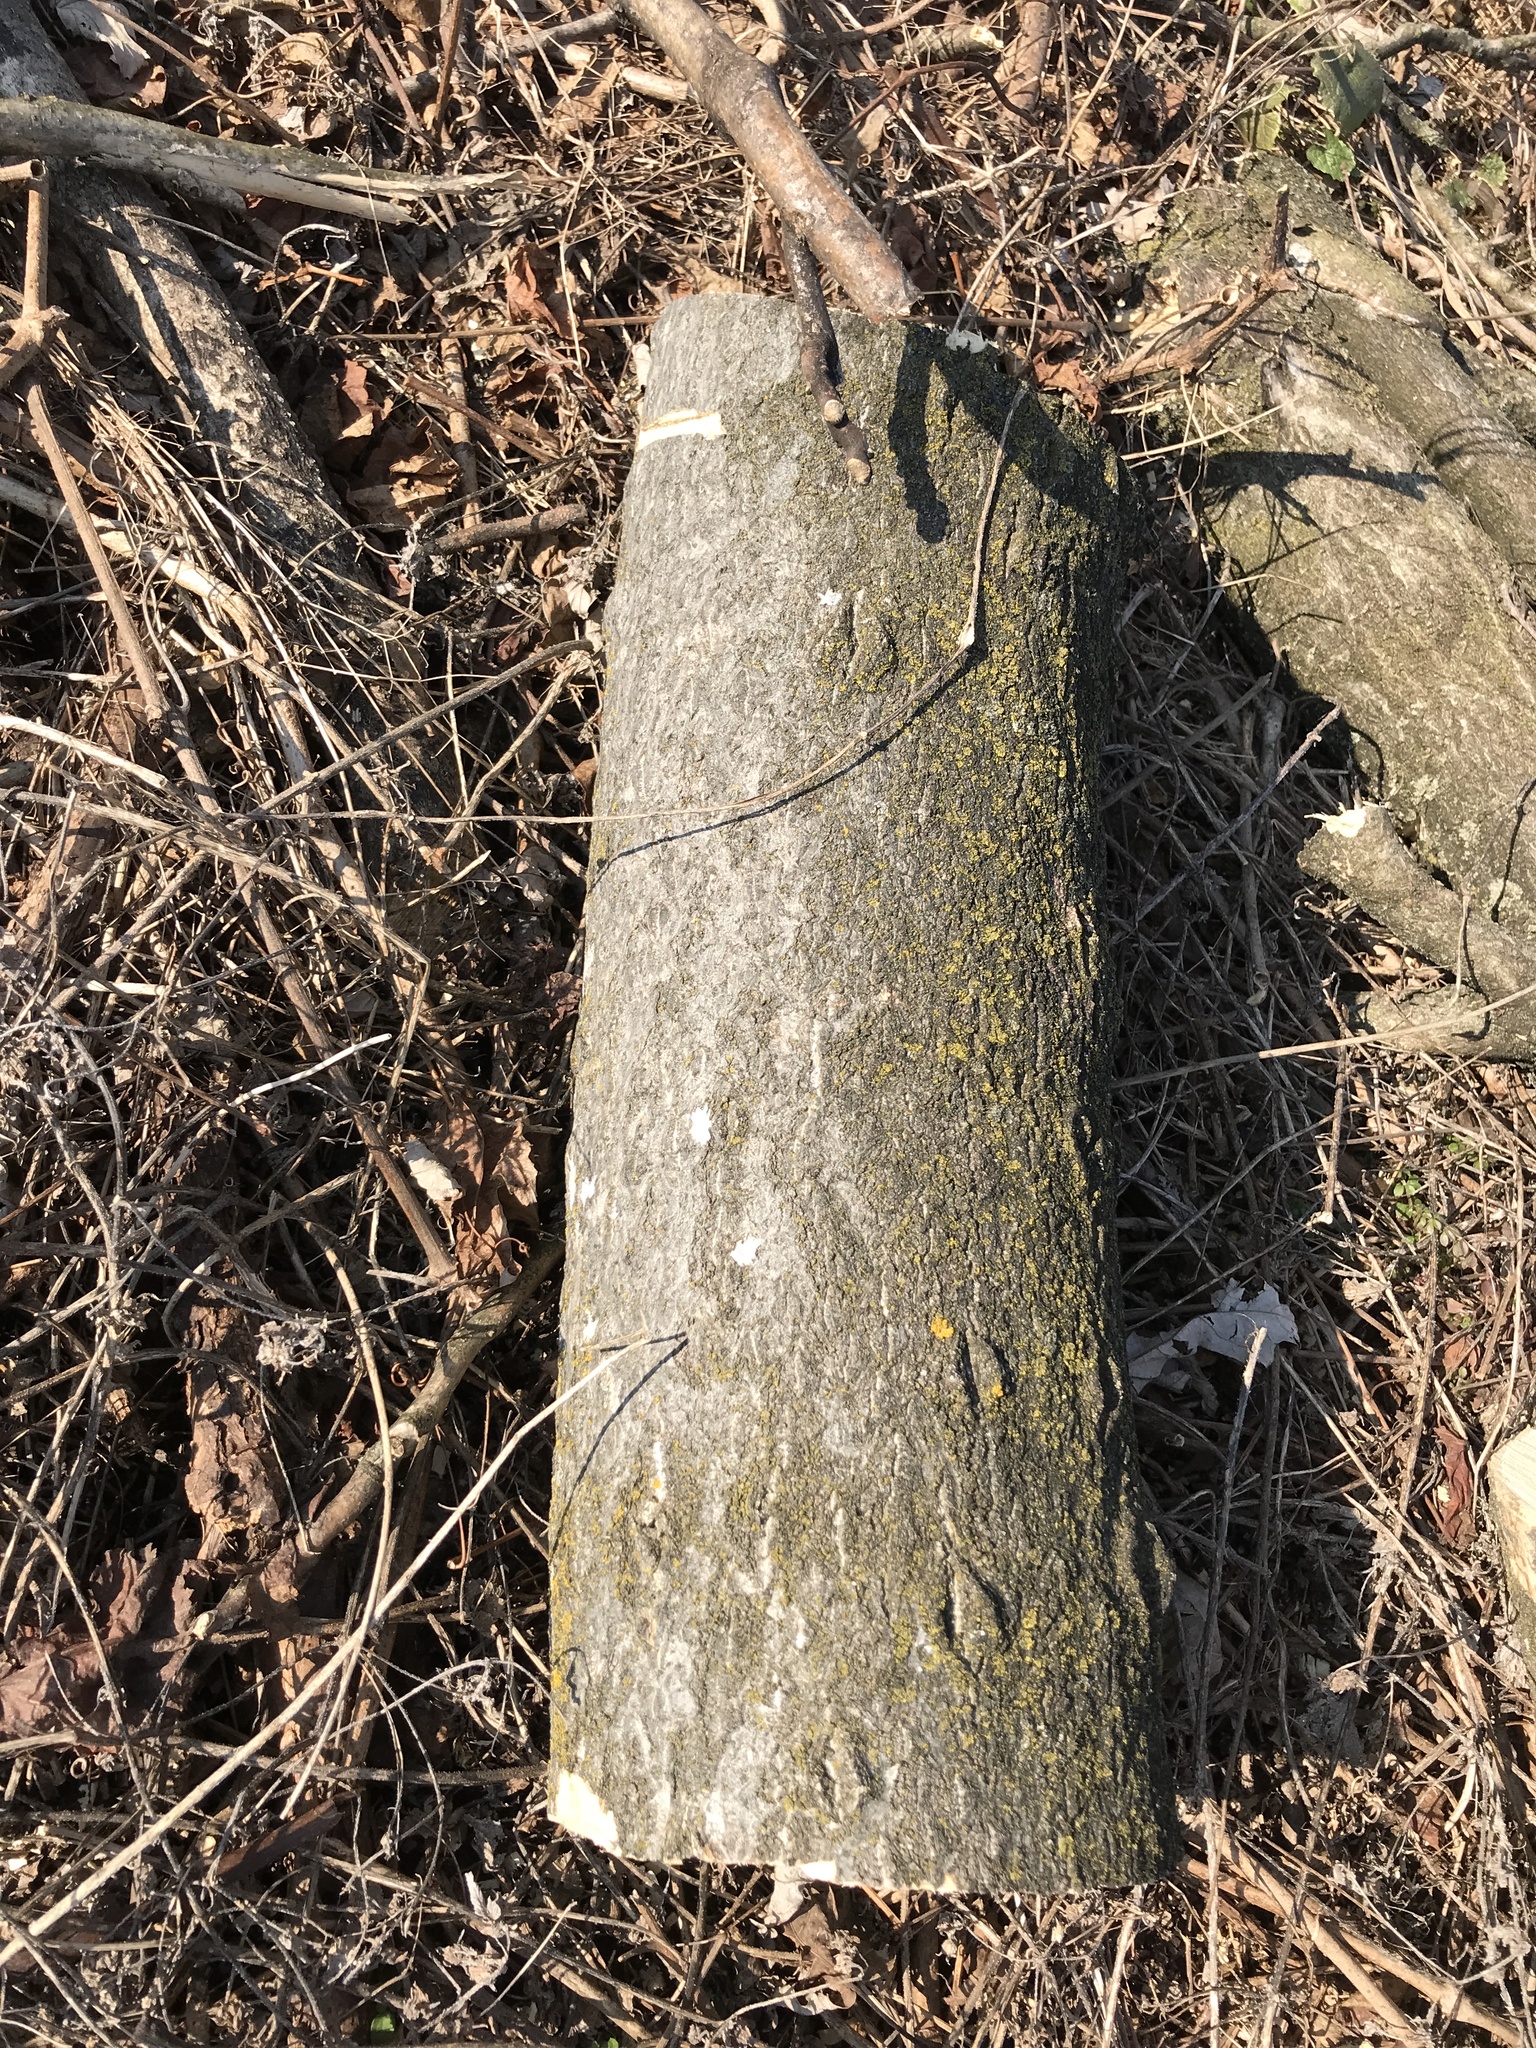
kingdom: Plantae
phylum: Tracheophyta
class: Magnoliopsida
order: Sapindales
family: Simaroubaceae
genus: Ailanthus
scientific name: Ailanthus altissima
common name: Tree-of-heaven
